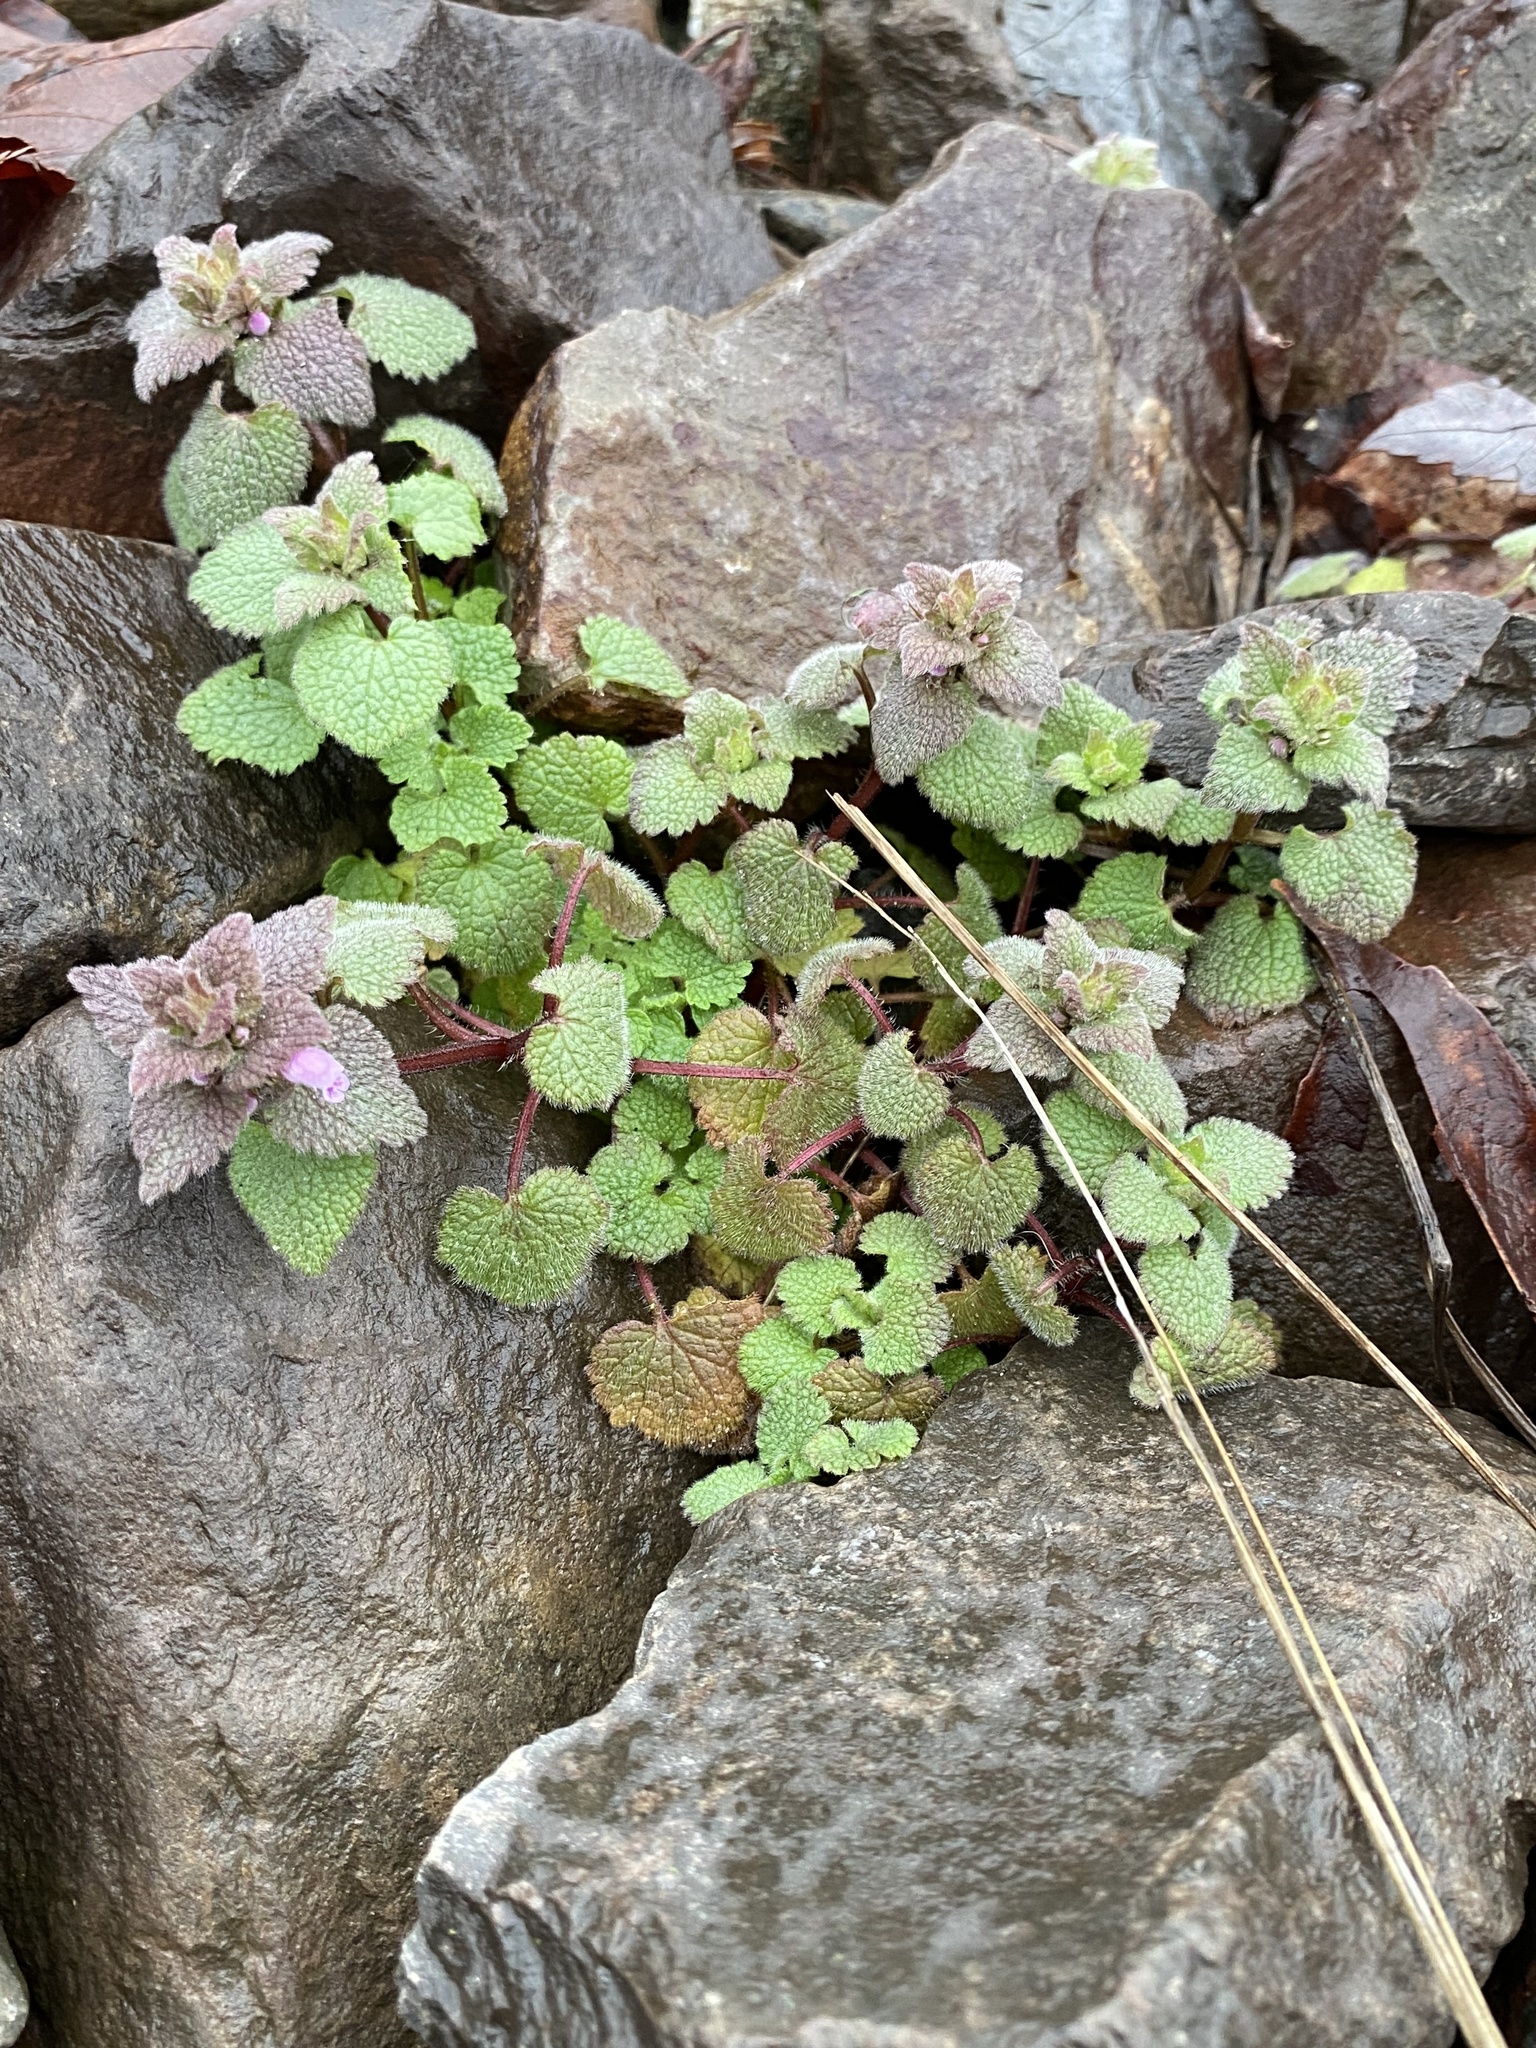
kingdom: Plantae
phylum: Tracheophyta
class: Magnoliopsida
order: Lamiales
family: Lamiaceae
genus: Lamium
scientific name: Lamium purpureum
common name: Red dead-nettle
